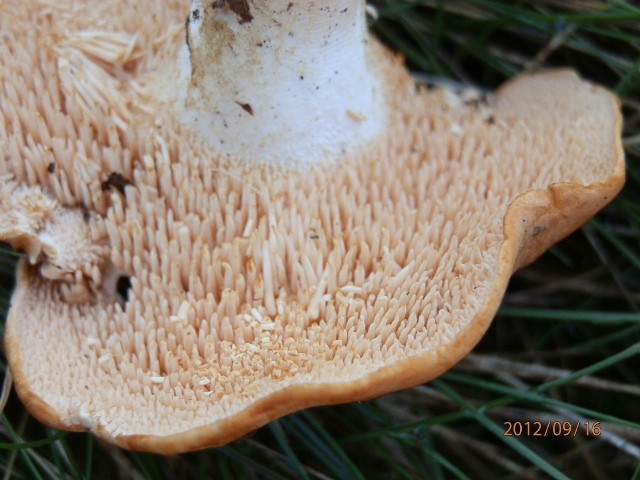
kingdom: Fungi
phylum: Basidiomycota
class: Agaricomycetes
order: Cantharellales
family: Hydnaceae
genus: Hydnum
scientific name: Hydnum aerostatisporum
